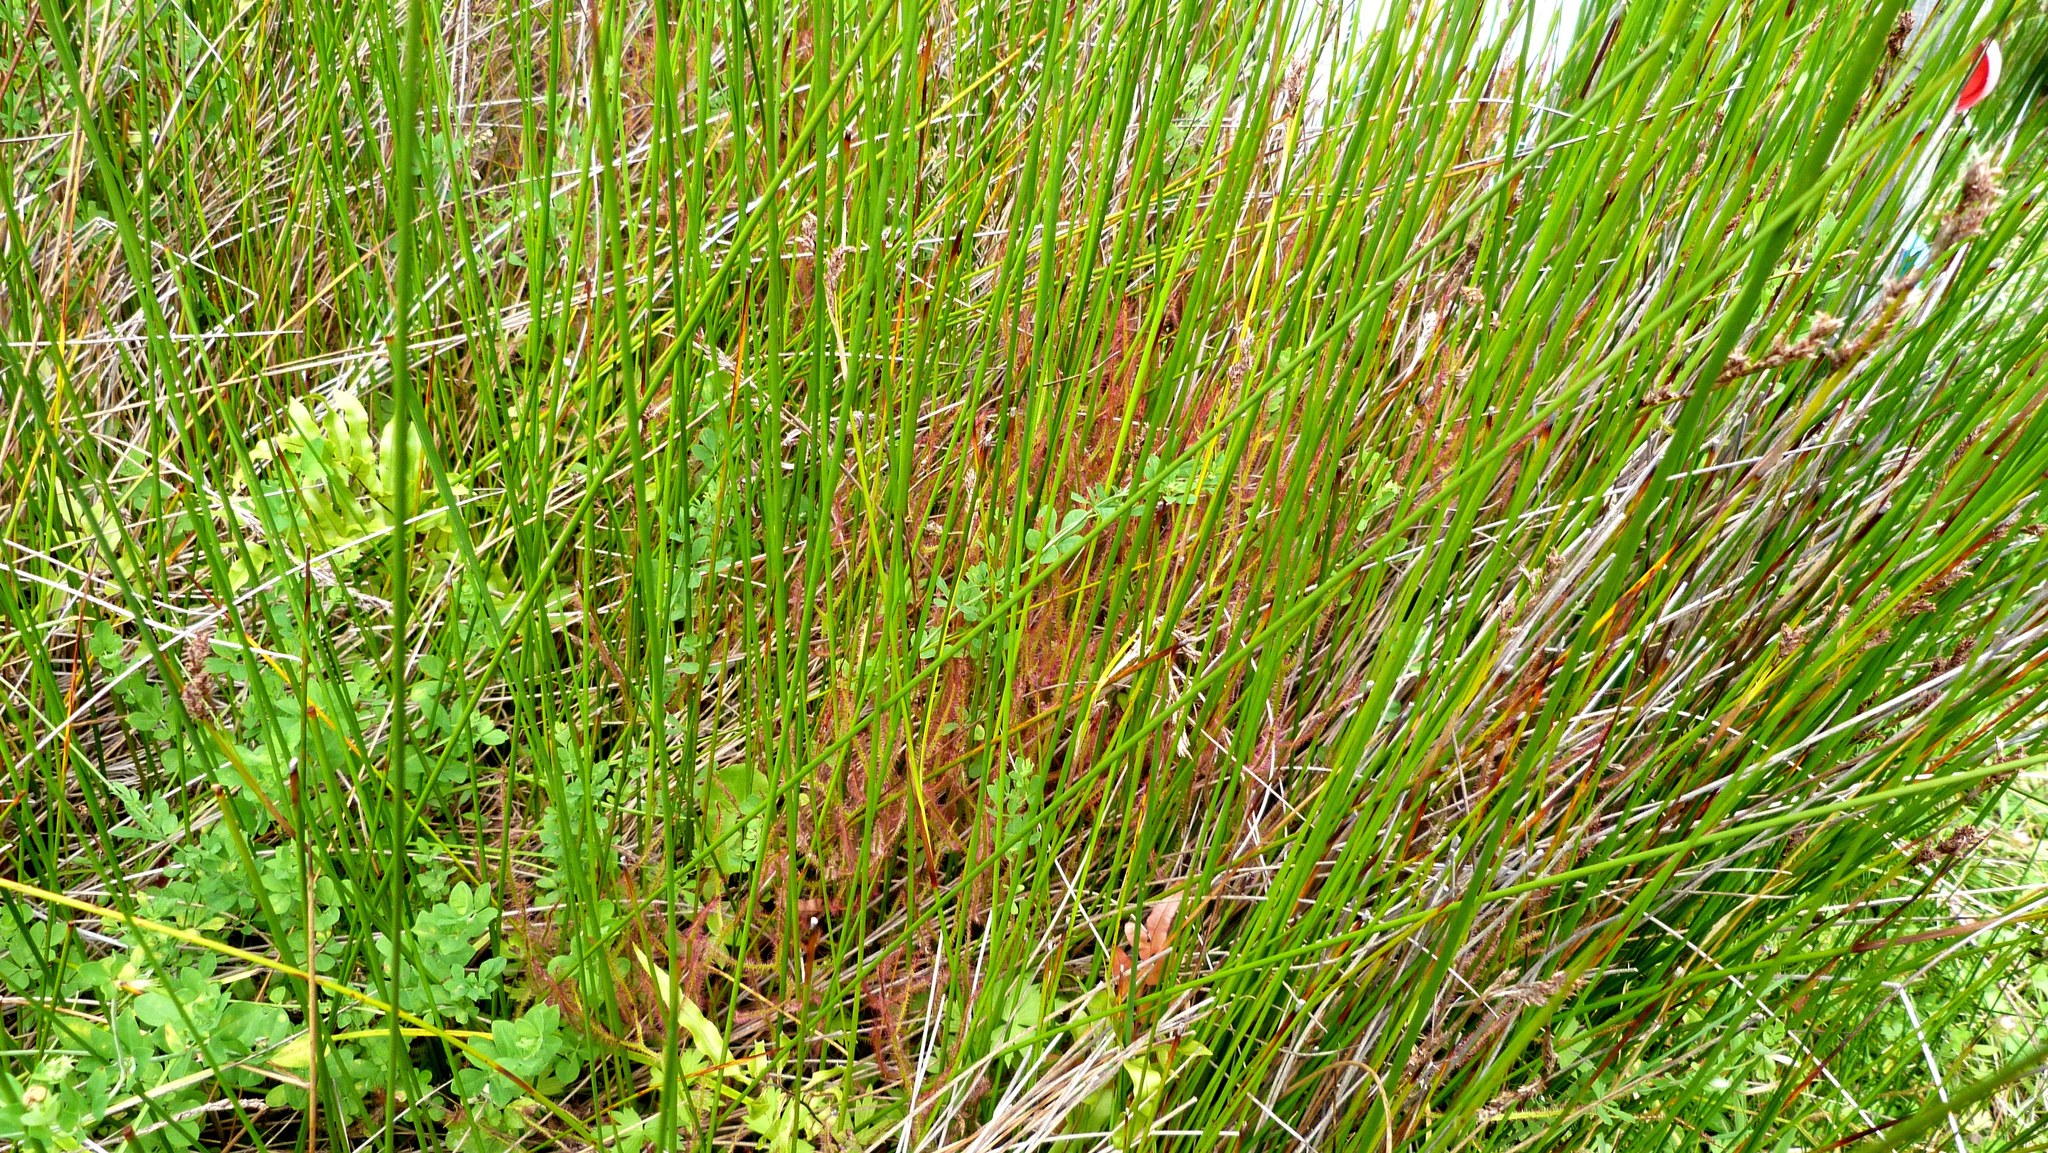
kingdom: Plantae
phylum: Tracheophyta
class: Magnoliopsida
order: Caryophyllales
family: Droseraceae
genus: Drosera
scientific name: Drosera binata
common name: Forked sundew
